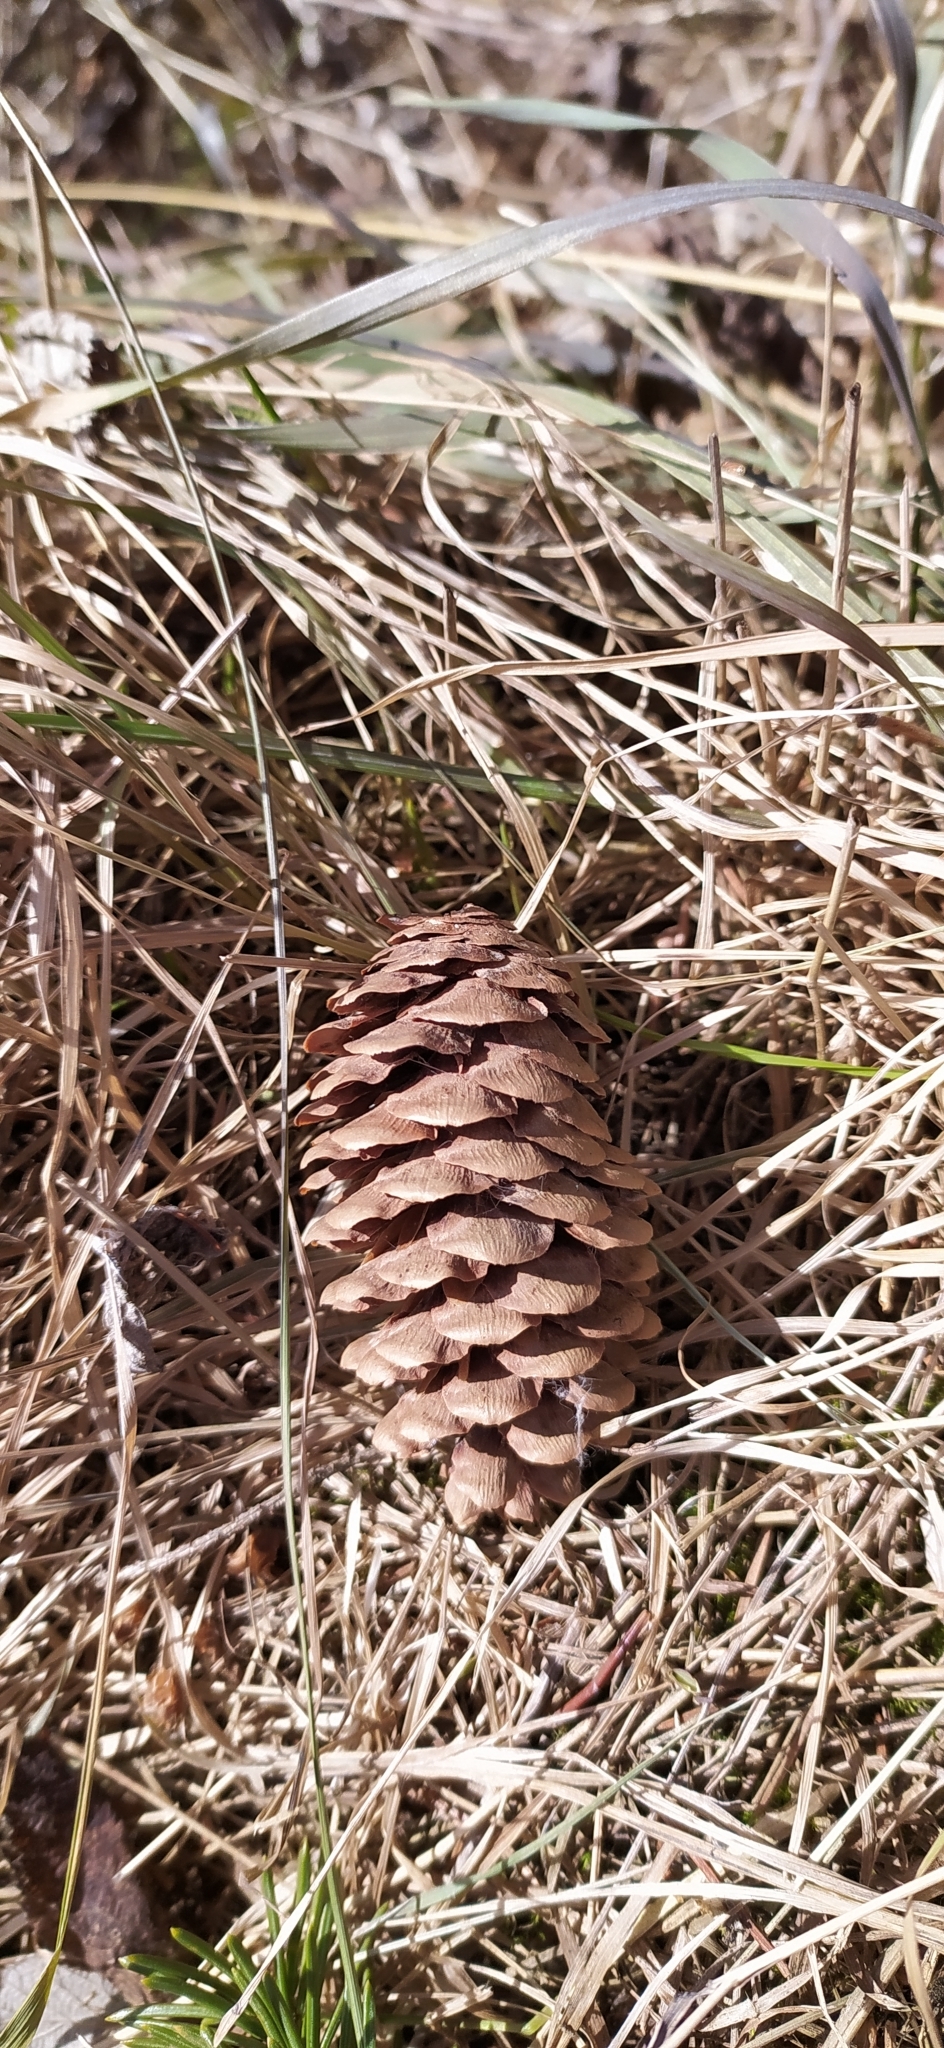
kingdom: Plantae
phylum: Tracheophyta
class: Pinopsida
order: Pinales
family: Pinaceae
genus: Picea
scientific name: Picea obovata
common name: Siberian spruce
